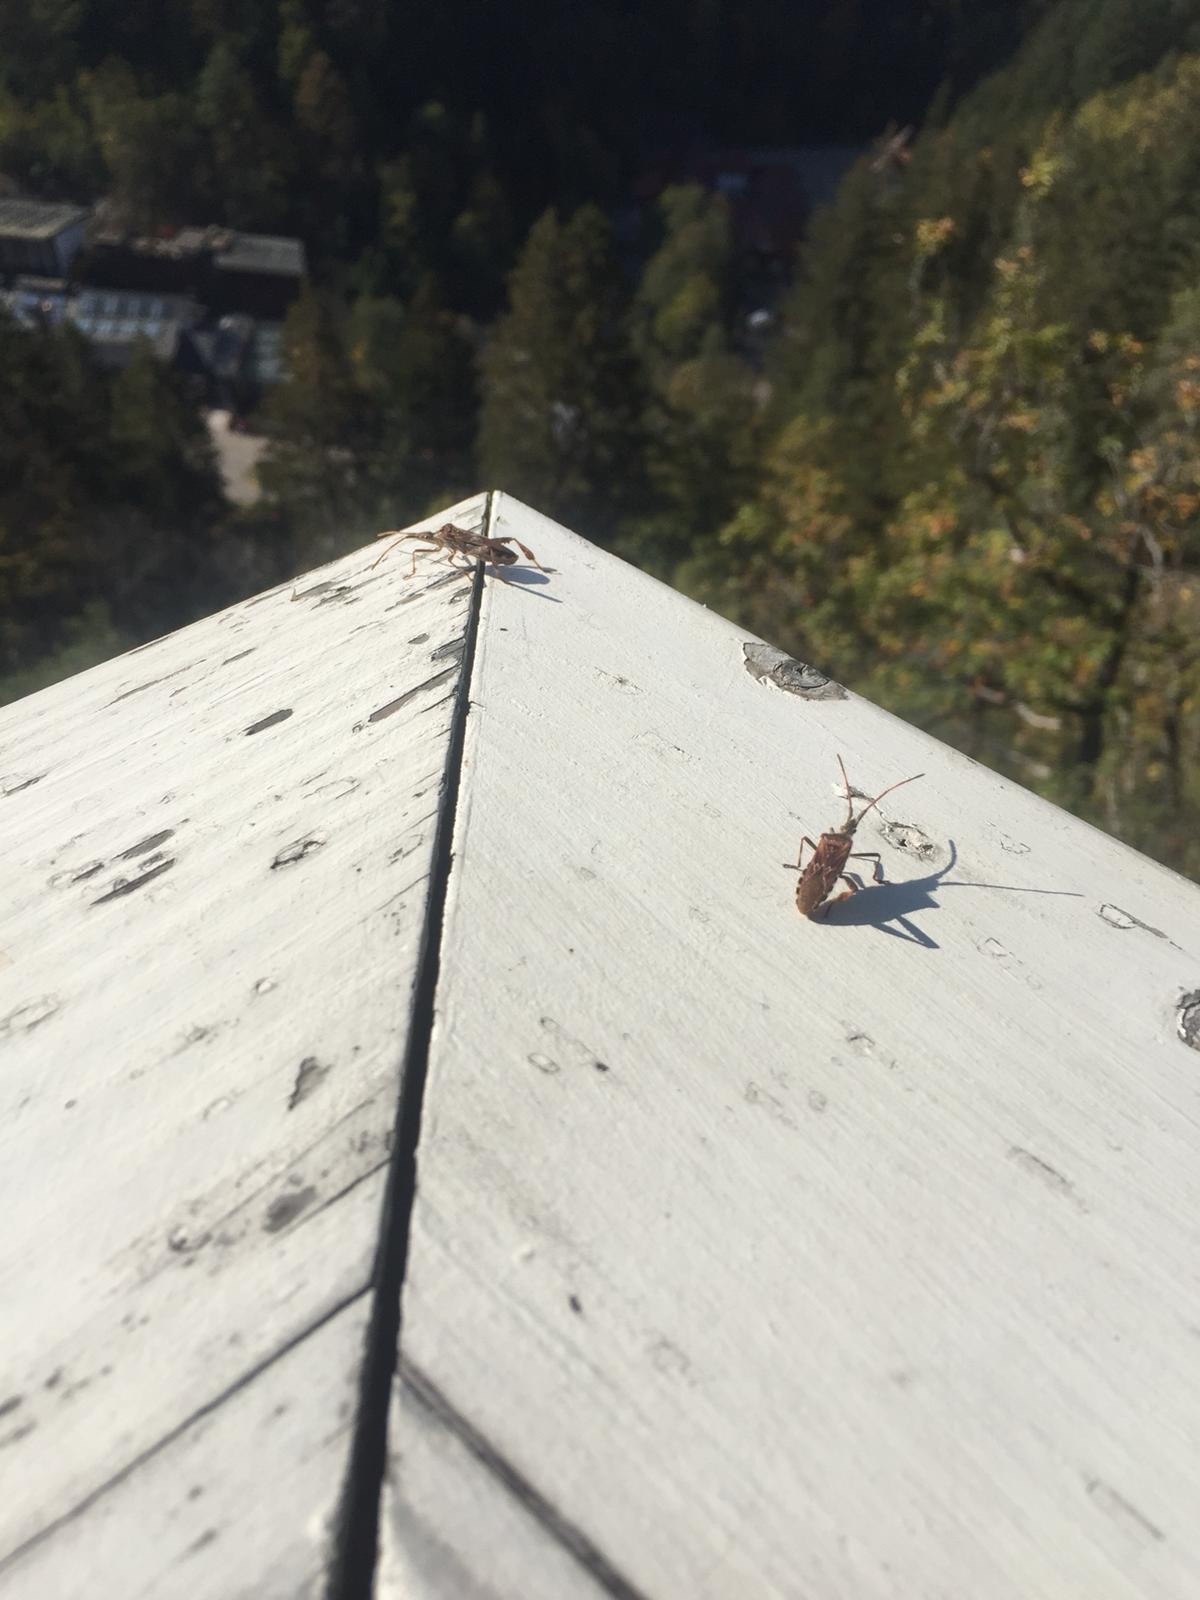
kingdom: Animalia
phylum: Arthropoda
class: Insecta
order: Hemiptera
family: Coreidae
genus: Leptoglossus
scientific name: Leptoglossus occidentalis
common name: Western conifer-seed bug
